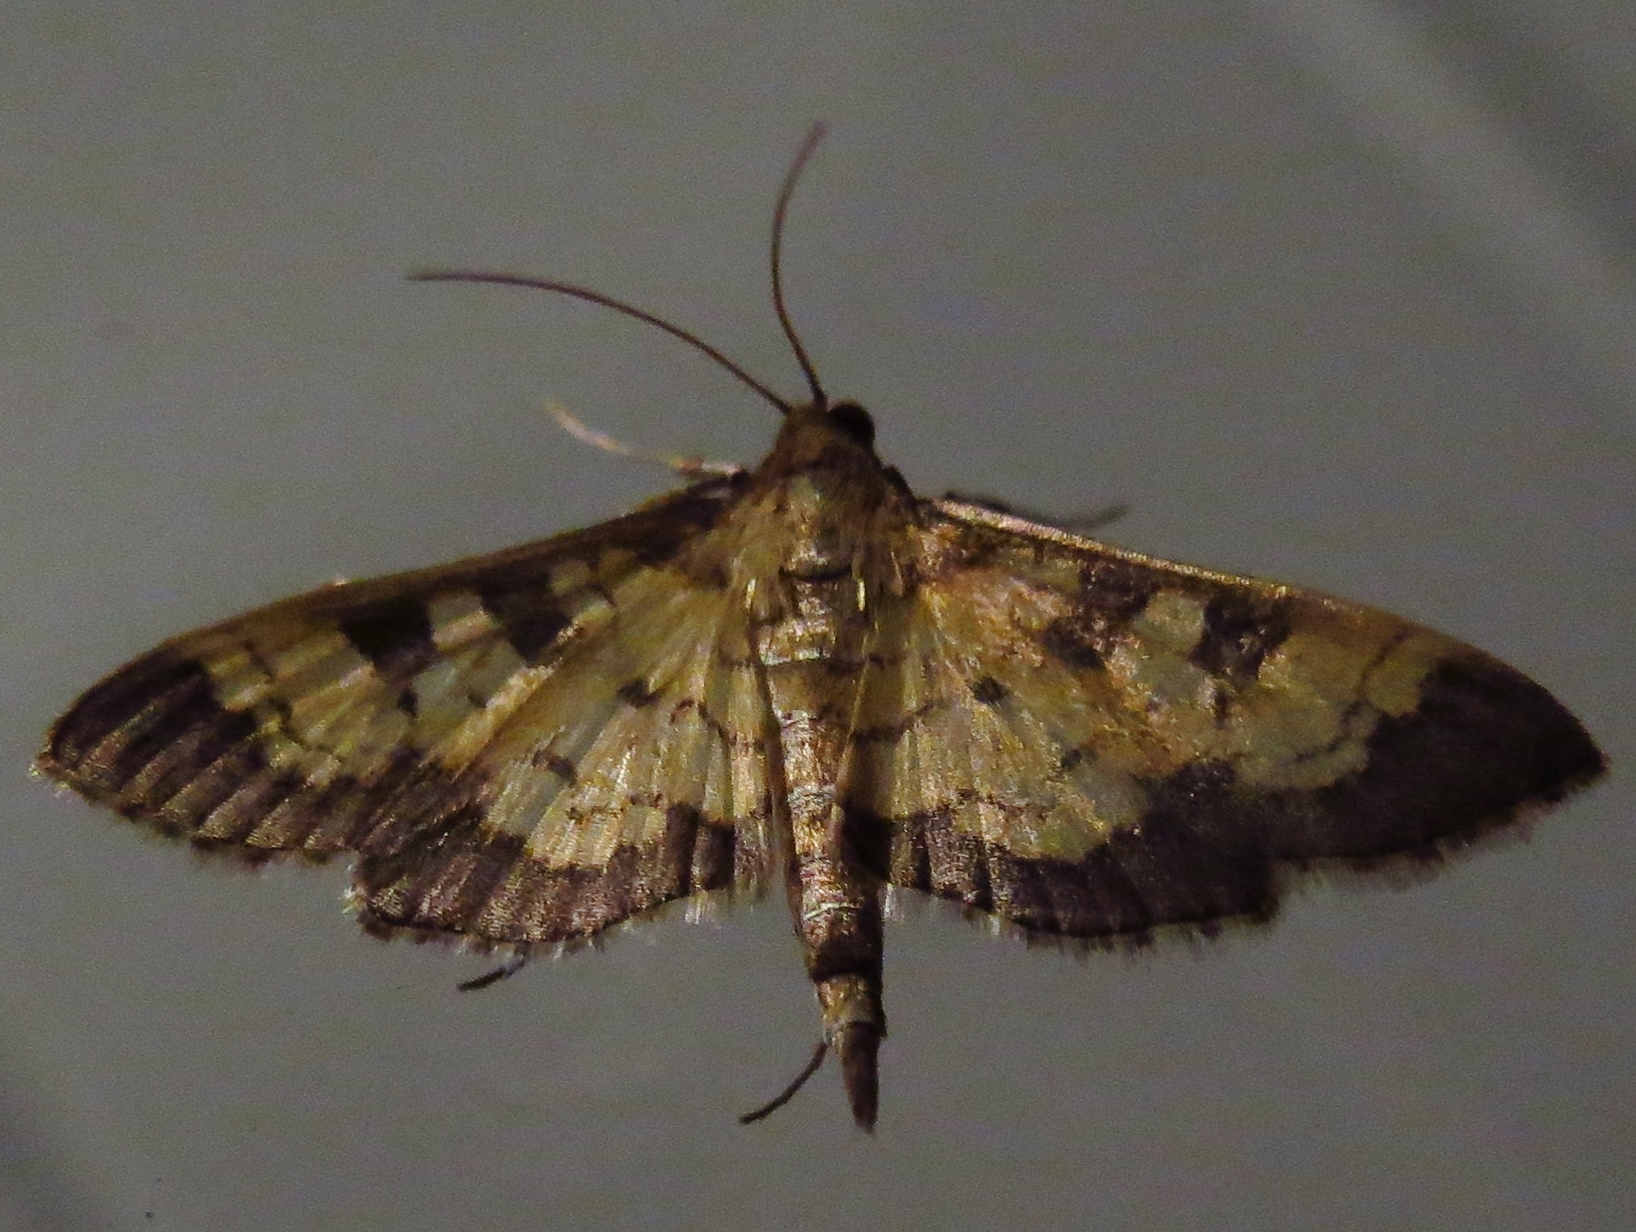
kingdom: Animalia
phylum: Arthropoda
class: Insecta
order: Lepidoptera
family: Crambidae
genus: Epipagis
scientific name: Epipagis adipaloides
